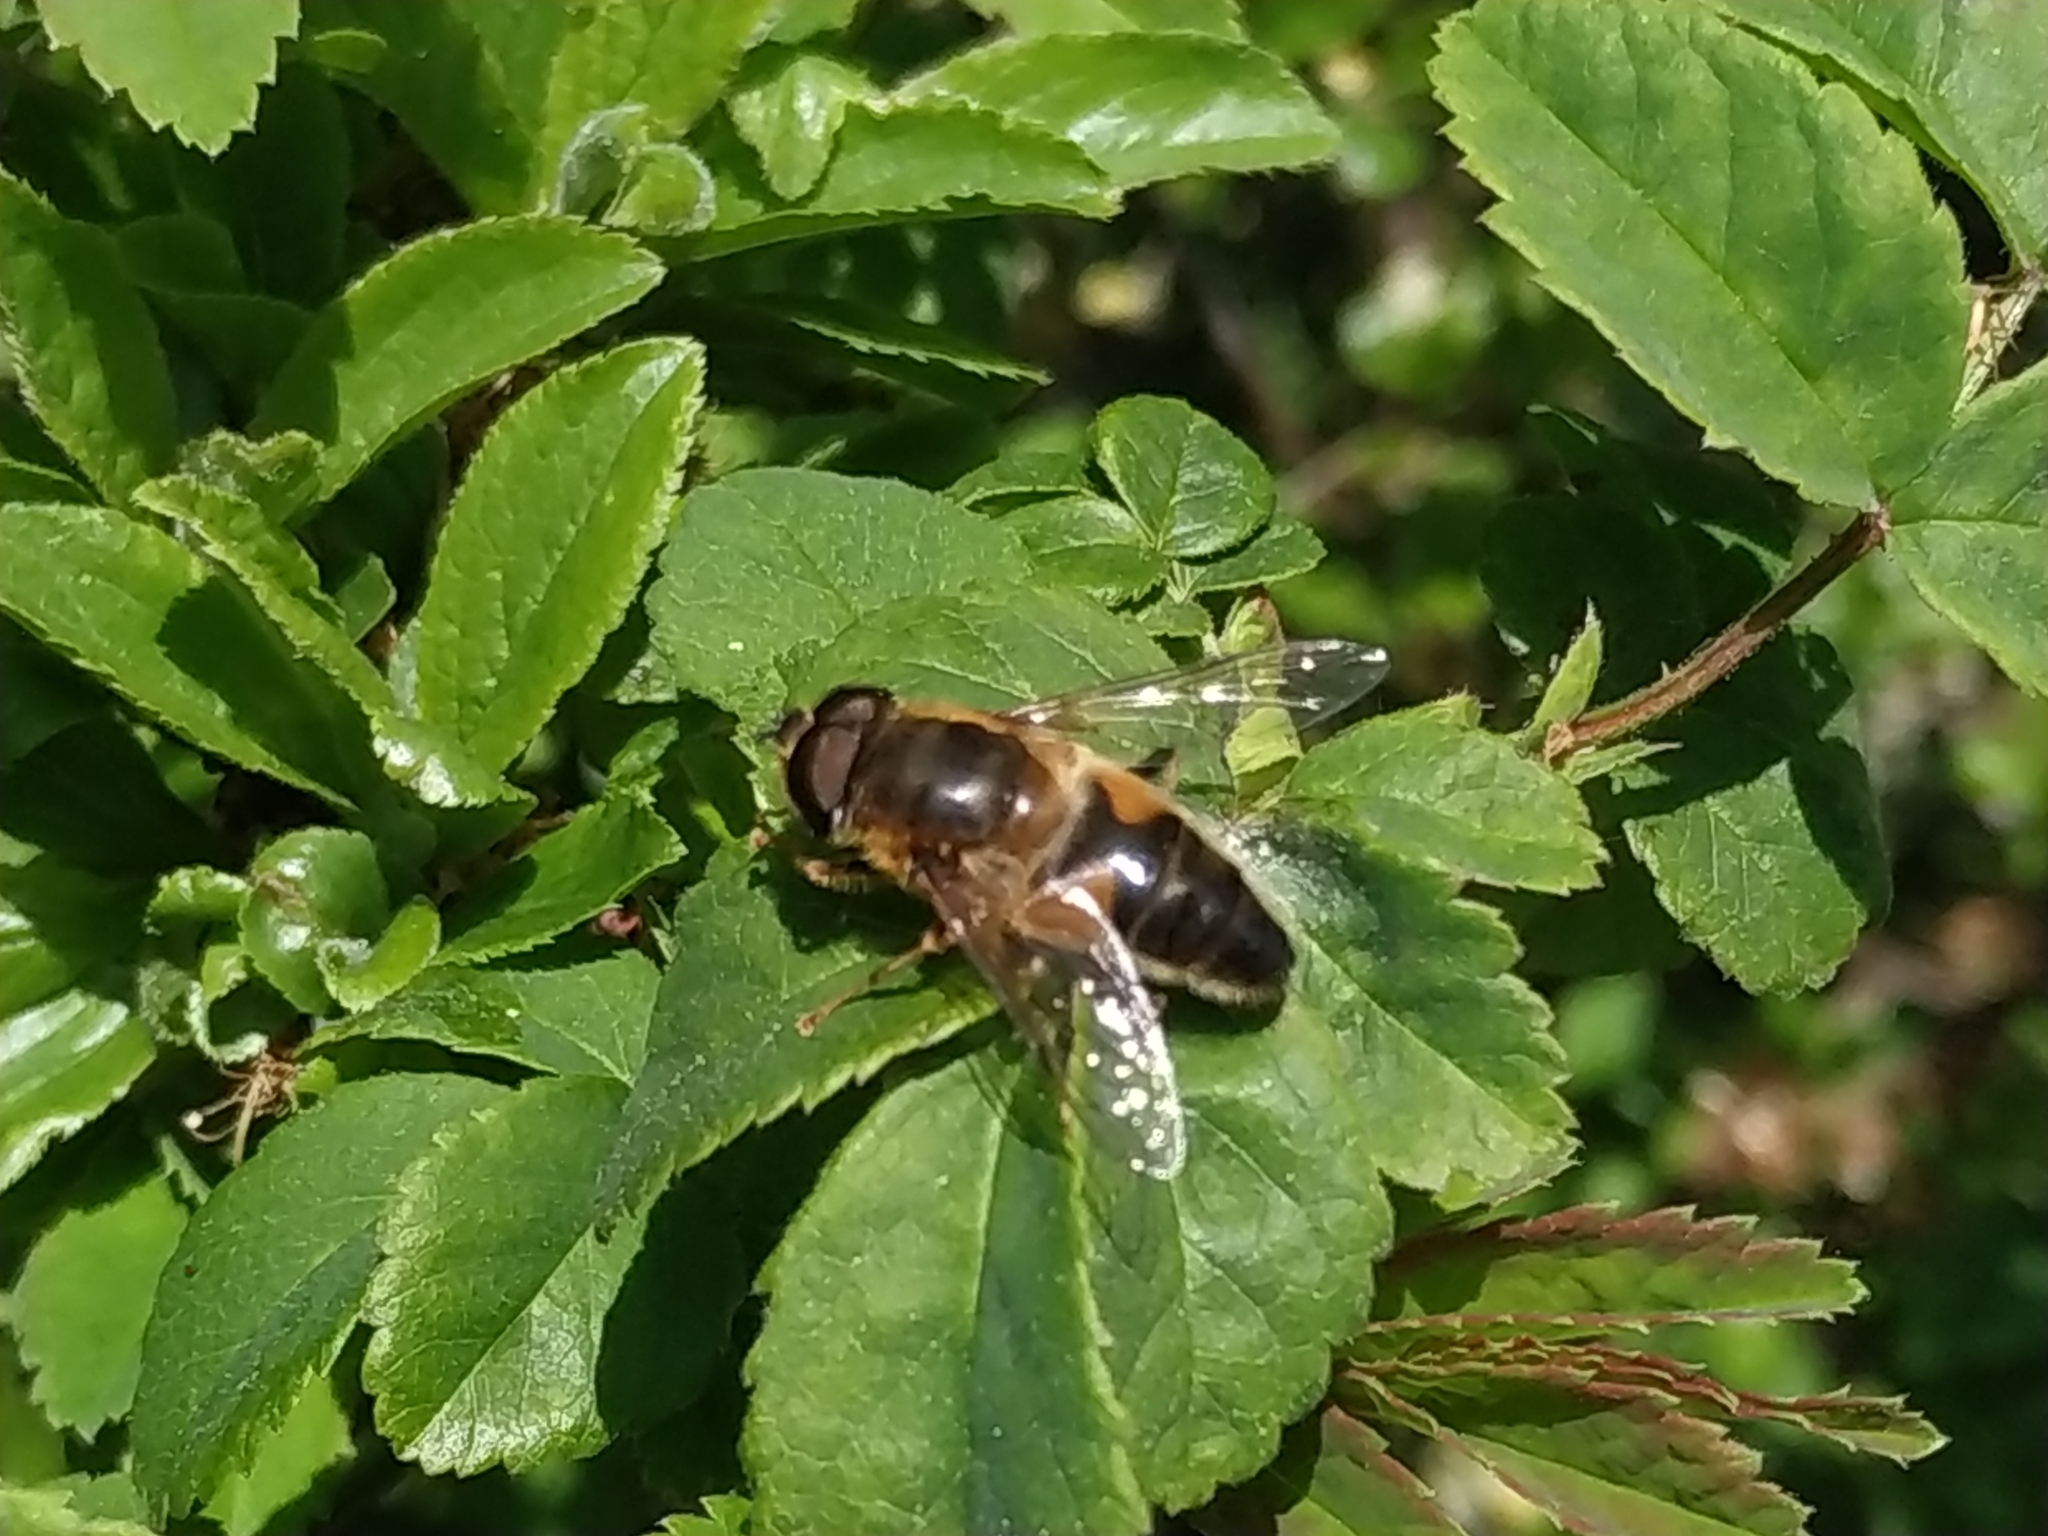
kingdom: Animalia
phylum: Arthropoda
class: Insecta
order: Diptera
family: Syrphidae
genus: Eristalis
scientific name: Eristalis pertinax
